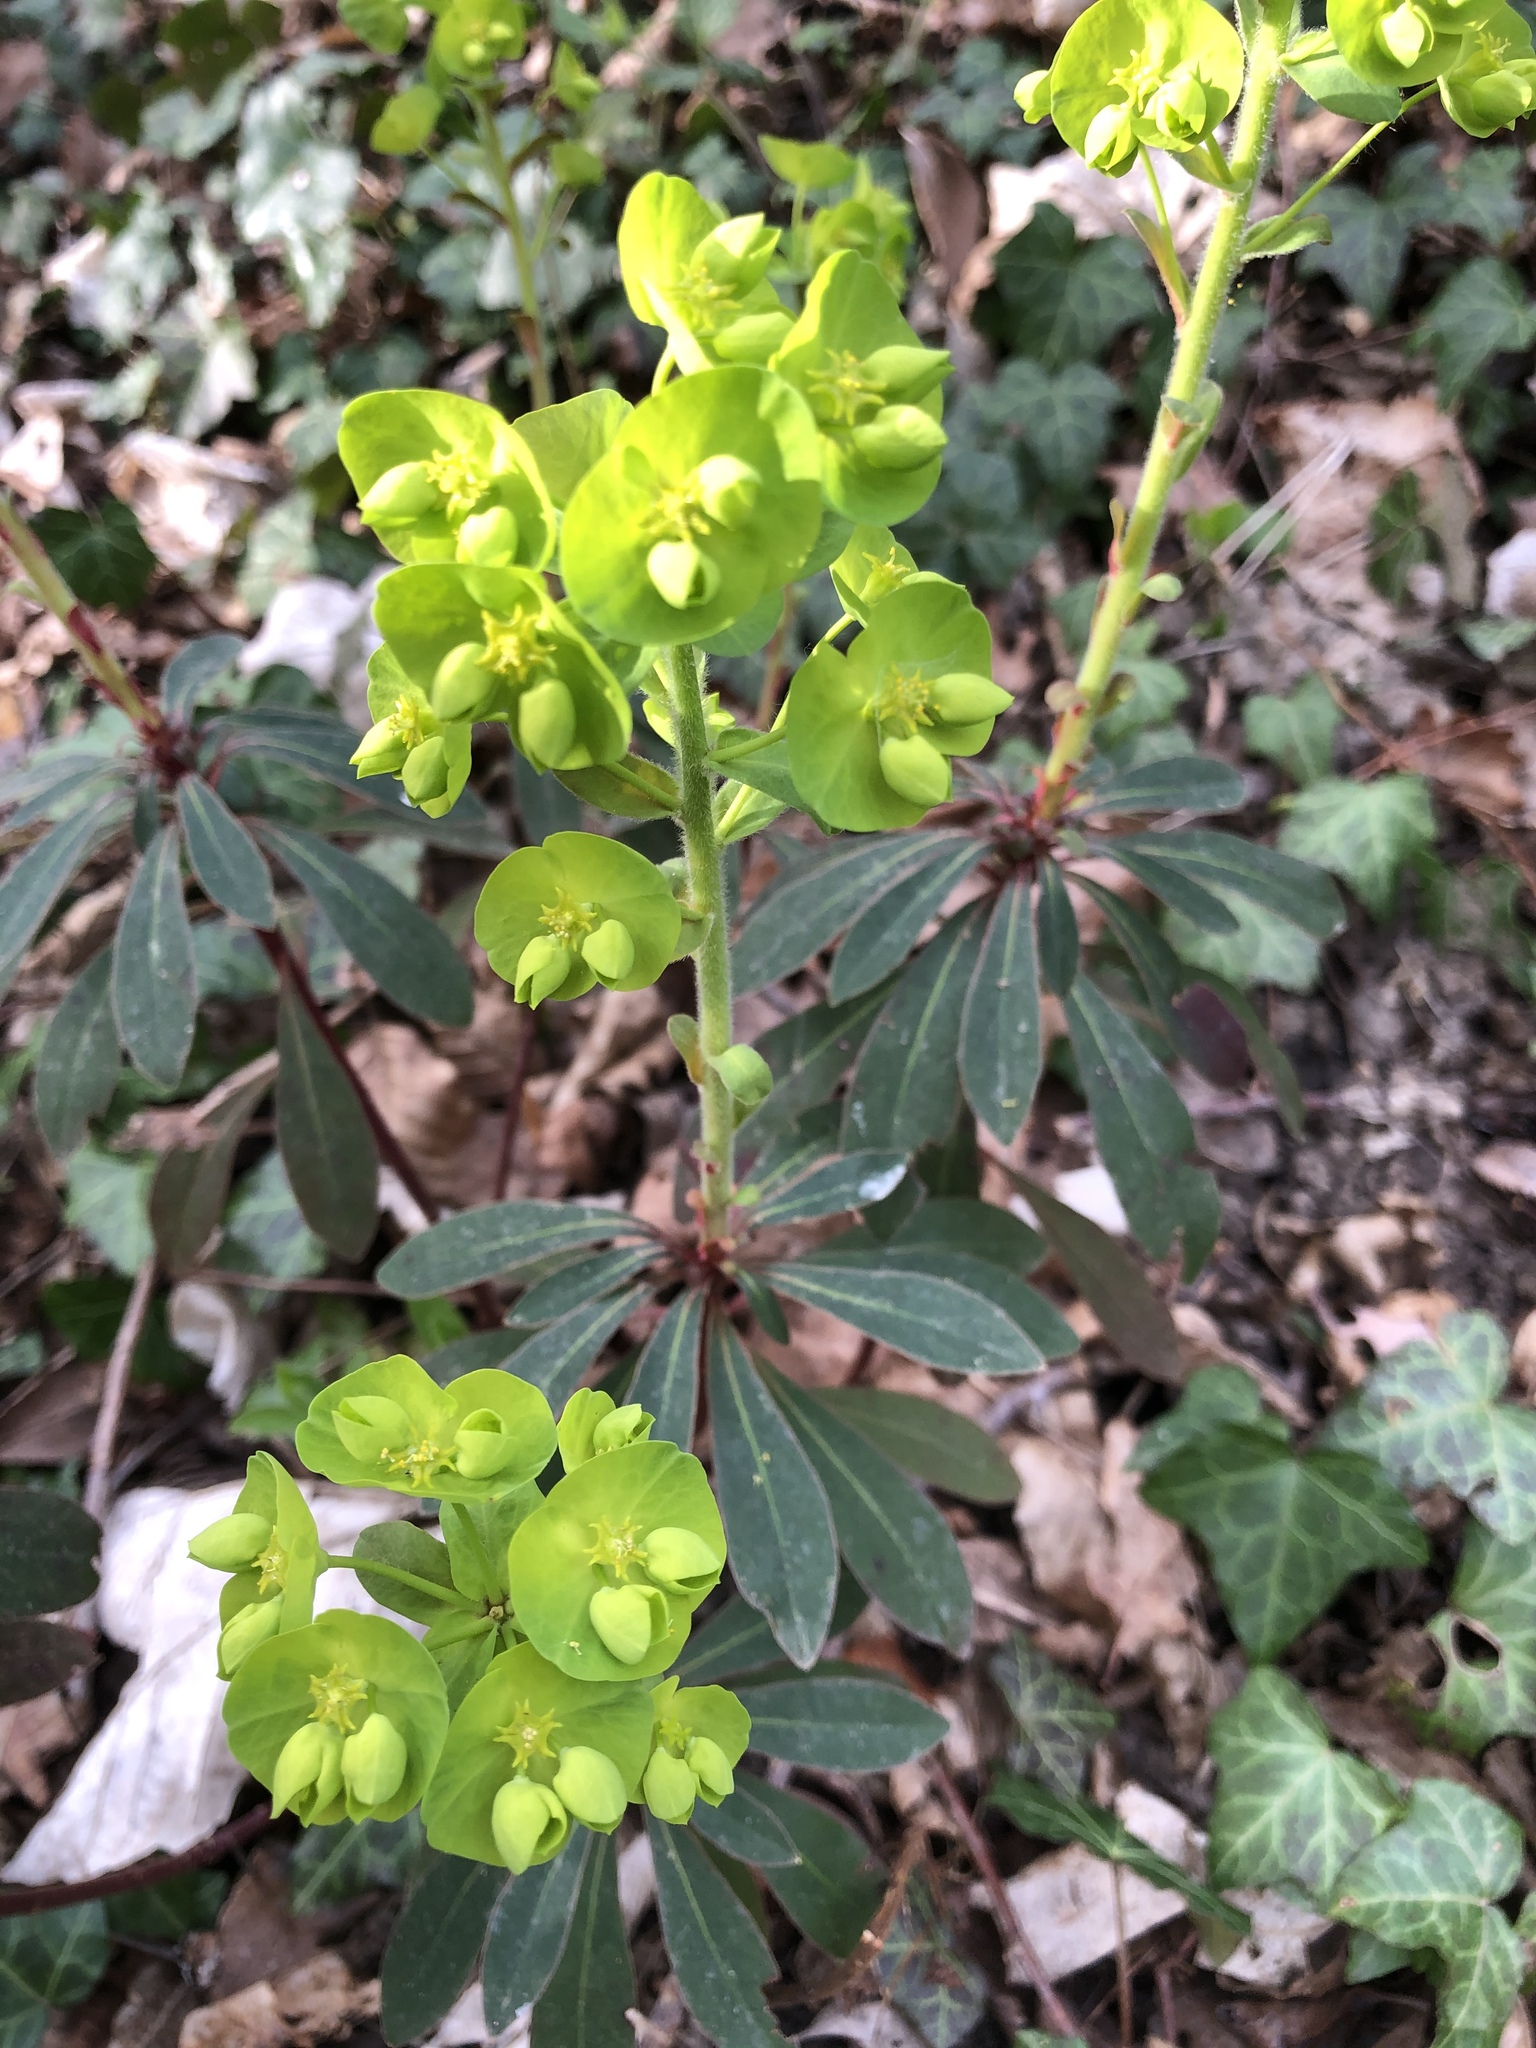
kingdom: Plantae
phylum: Tracheophyta
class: Magnoliopsida
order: Malpighiales
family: Euphorbiaceae
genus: Euphorbia
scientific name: Euphorbia amygdaloides
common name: Wood spurge
